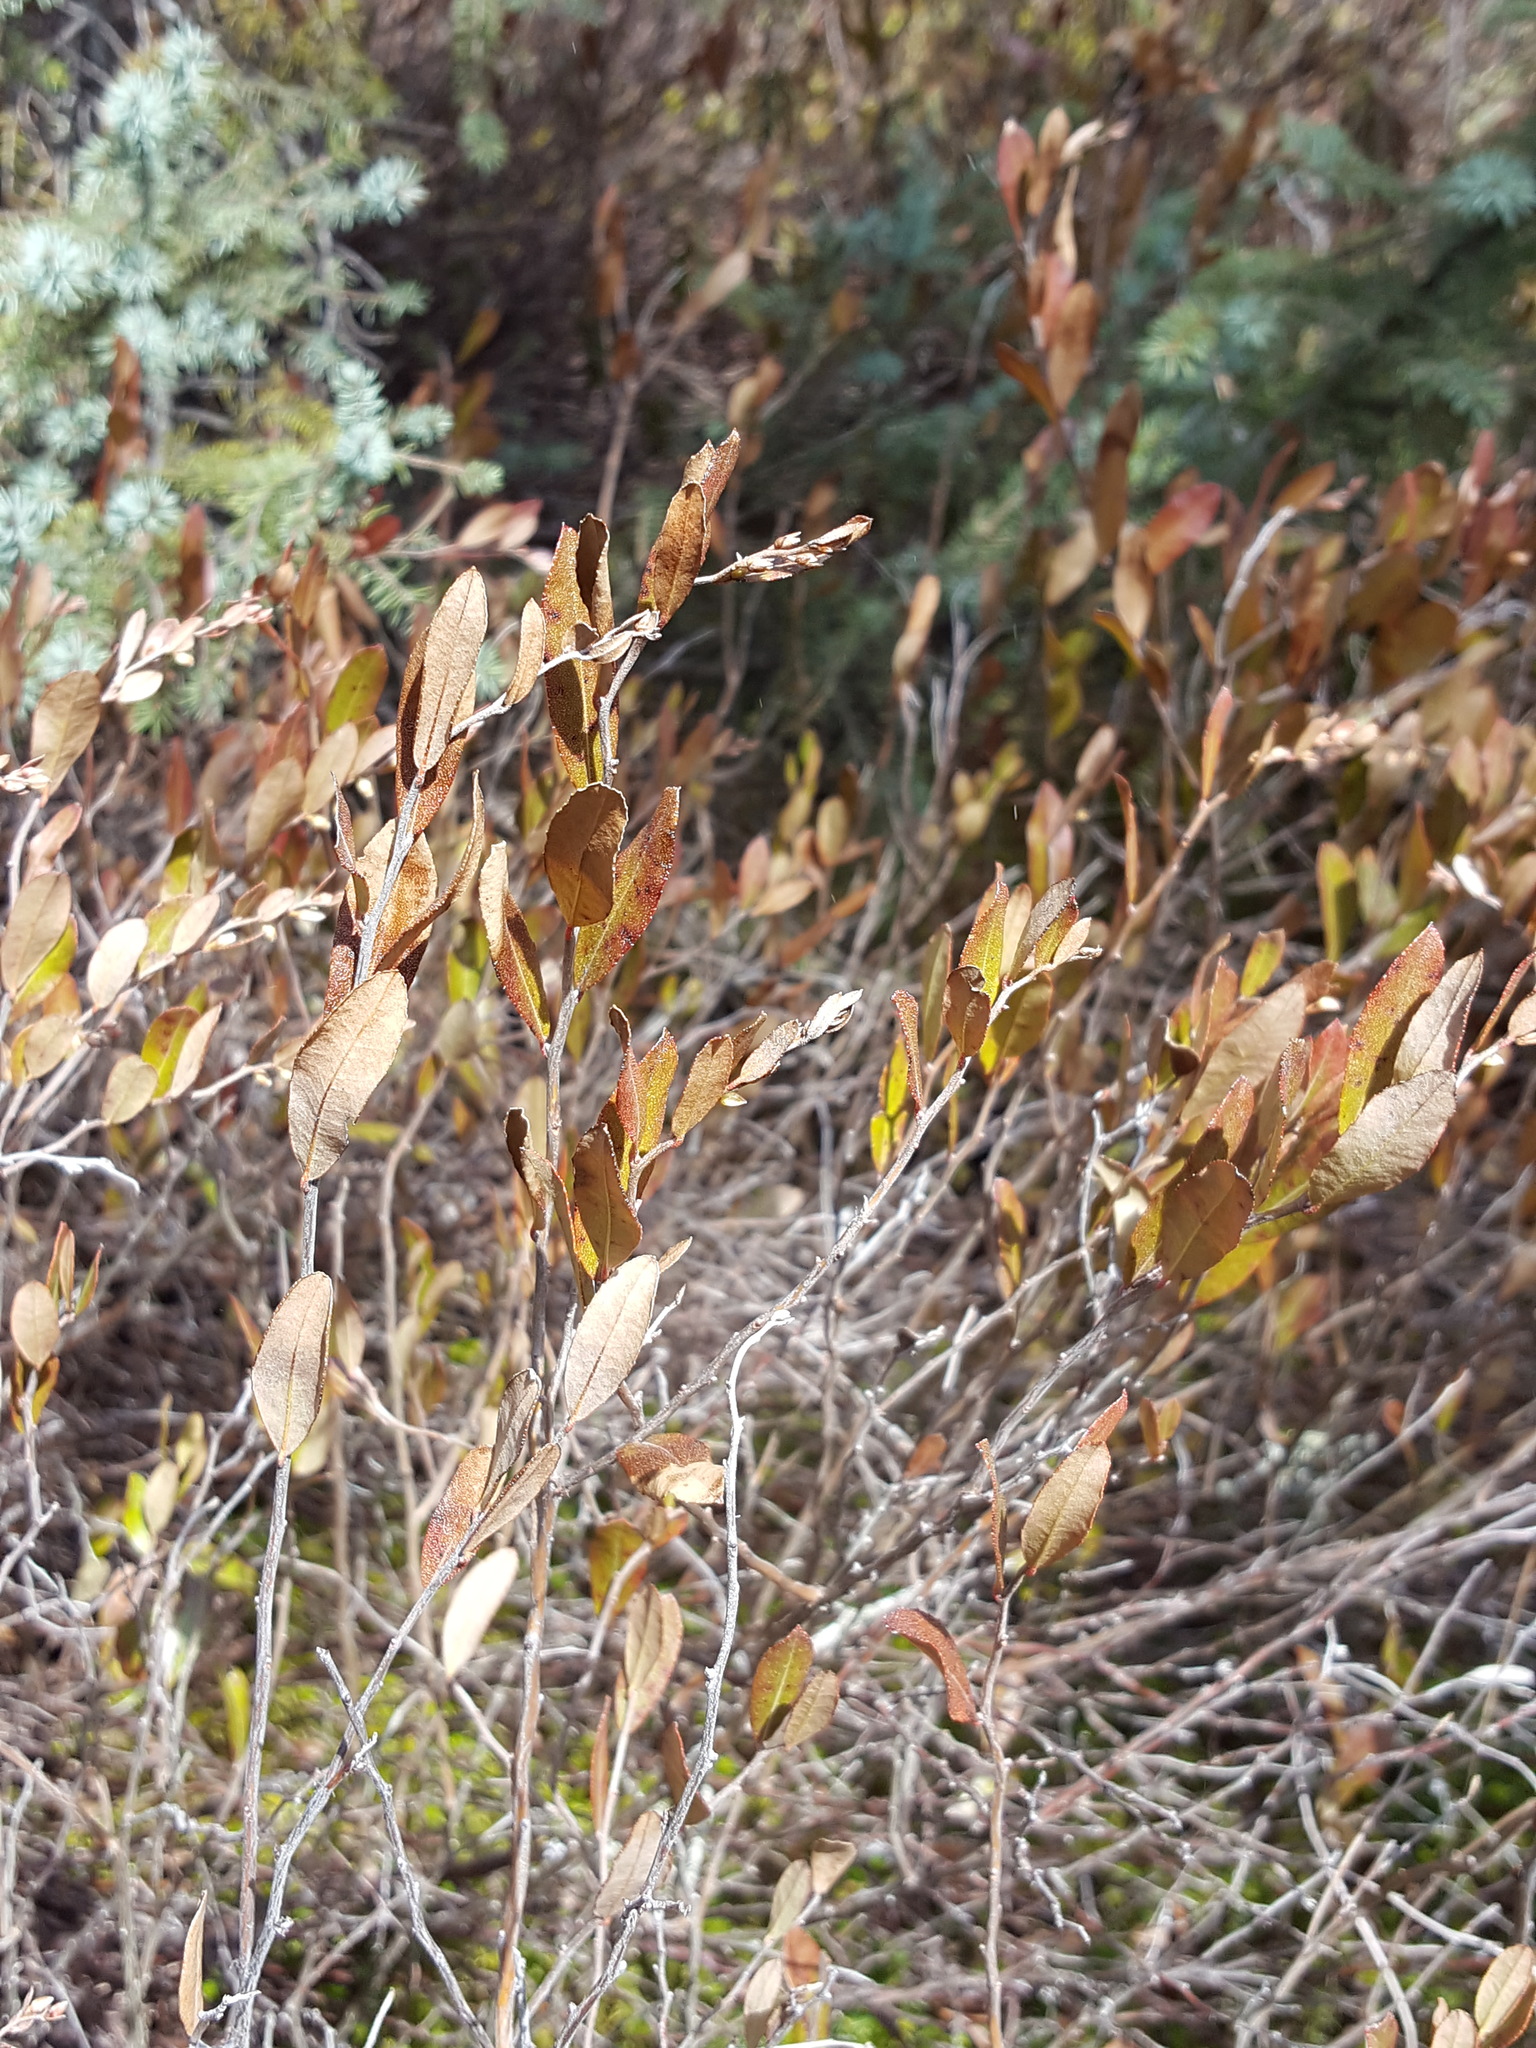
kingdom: Plantae
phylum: Tracheophyta
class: Magnoliopsida
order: Ericales
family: Ericaceae
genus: Chamaedaphne
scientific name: Chamaedaphne calyculata
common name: Leatherleaf
